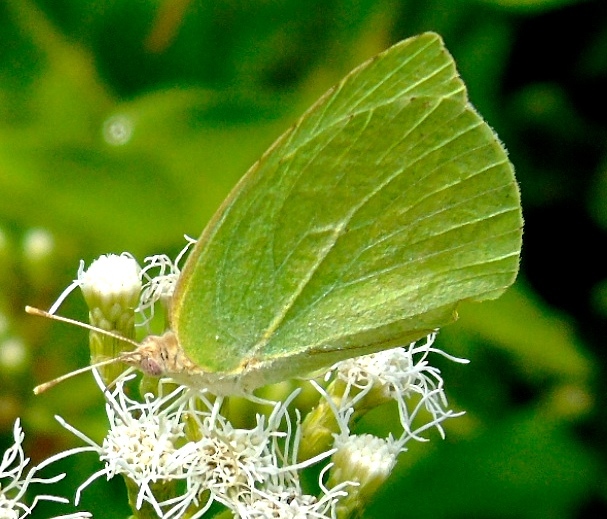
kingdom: Animalia
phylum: Arthropoda
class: Insecta
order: Lepidoptera
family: Pieridae
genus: Kricogonia
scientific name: Kricogonia lyside
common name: Guayacan sulphur,
